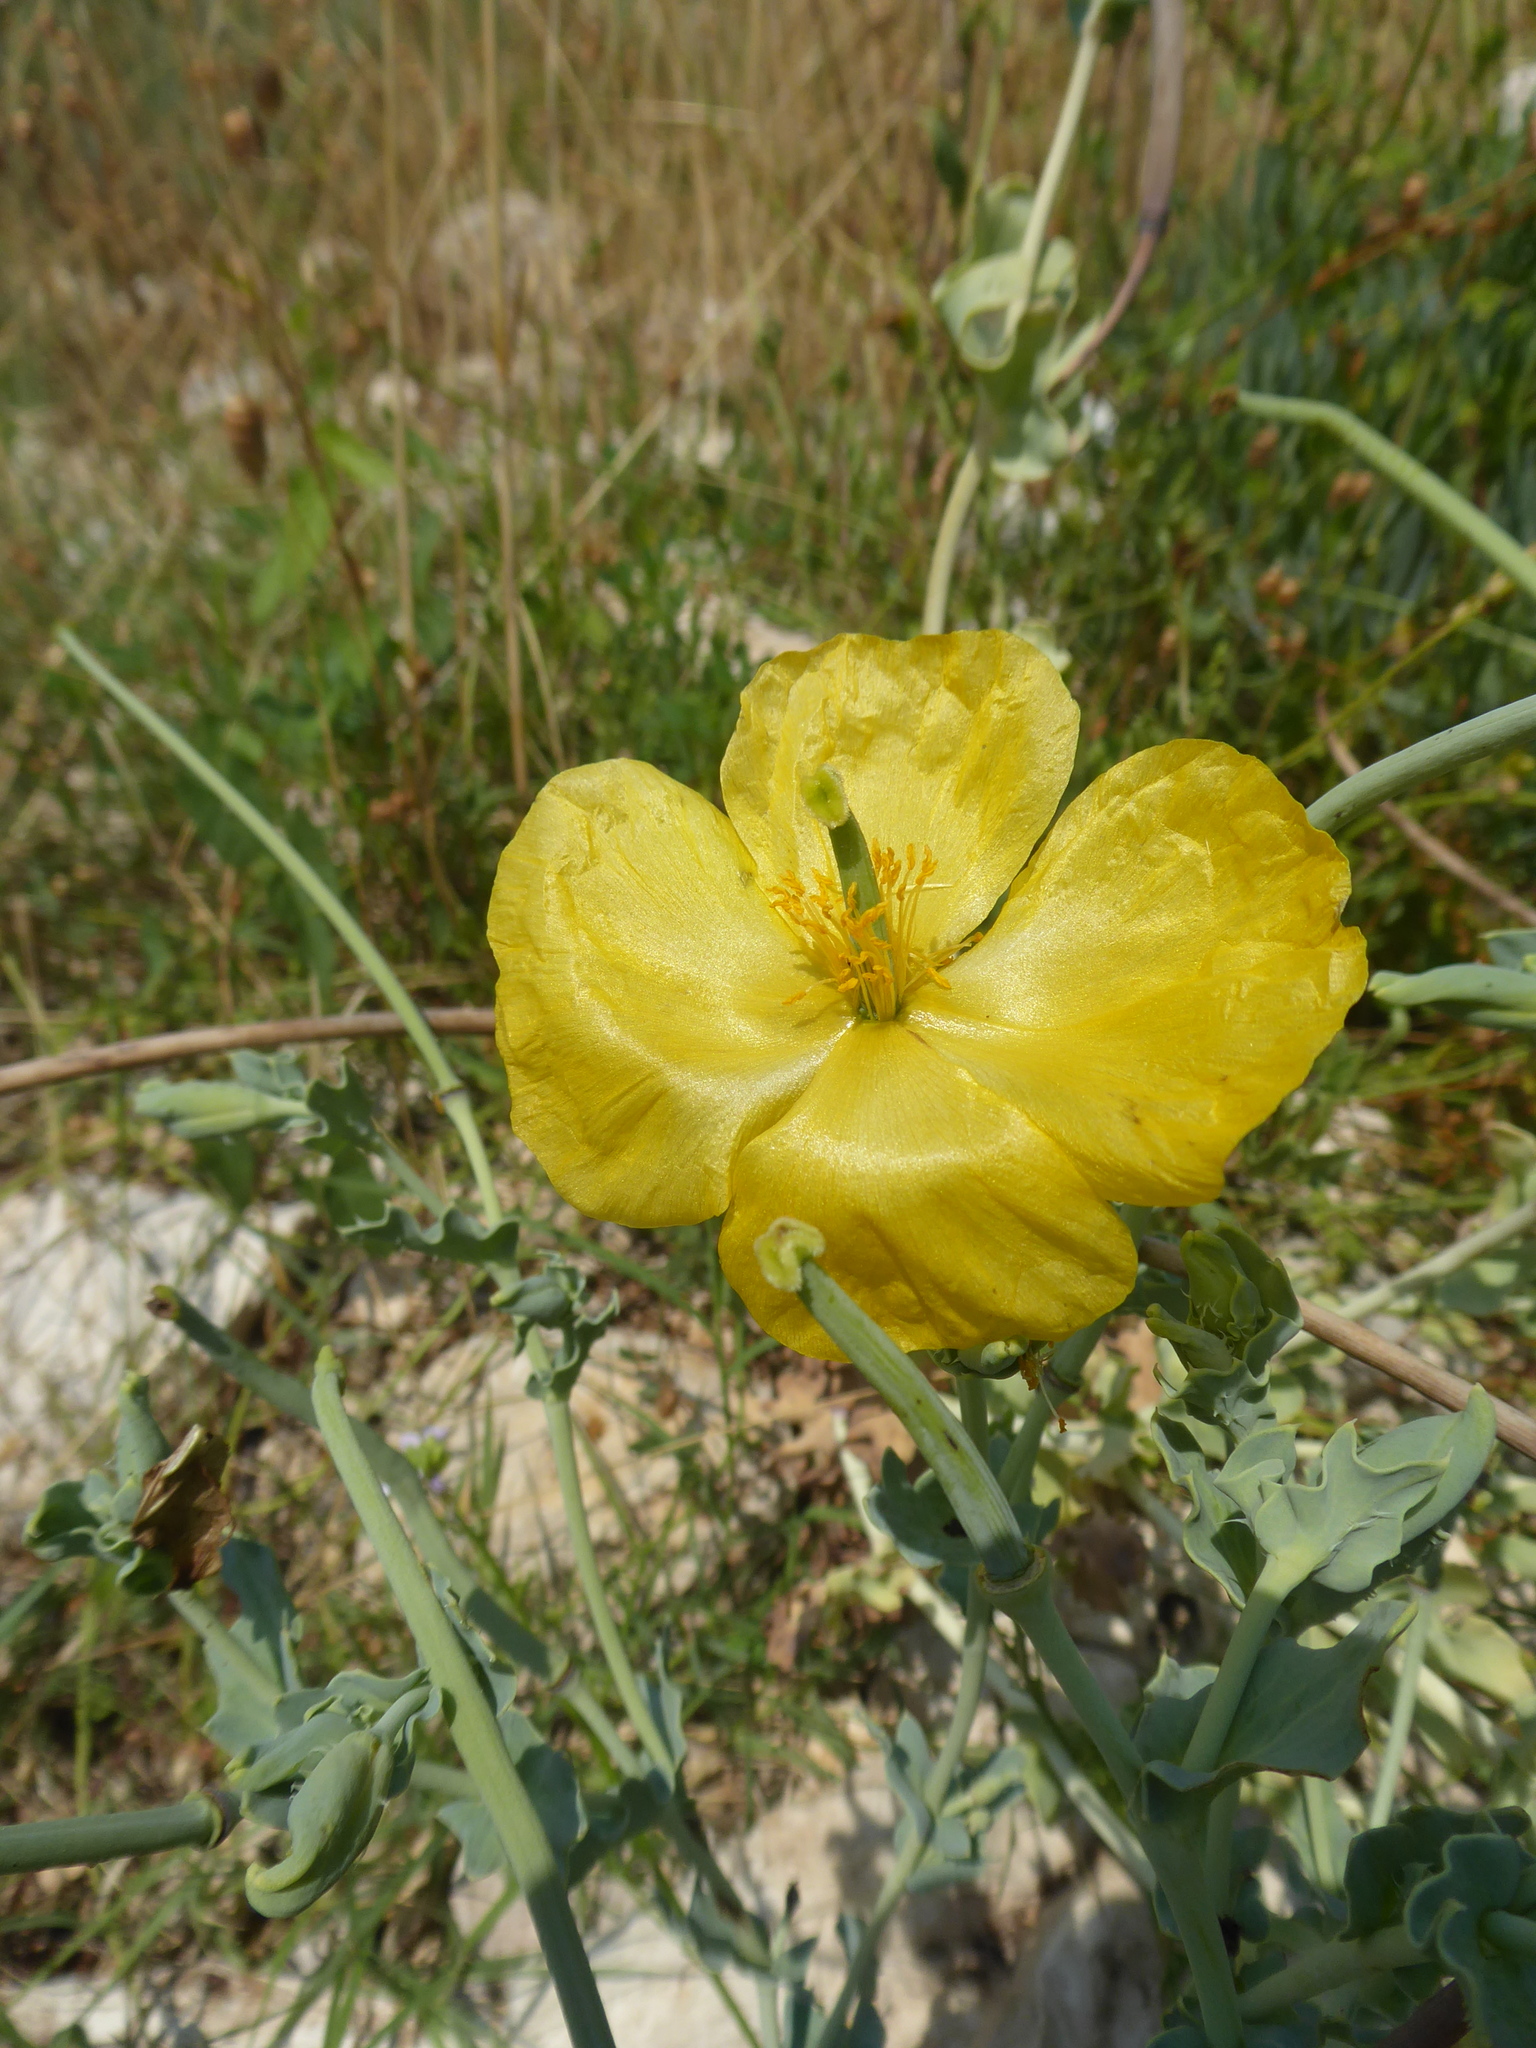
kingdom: Plantae
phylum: Tracheophyta
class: Magnoliopsida
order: Ranunculales
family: Papaveraceae
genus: Glaucium
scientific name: Glaucium flavum
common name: Yellow horned-poppy
